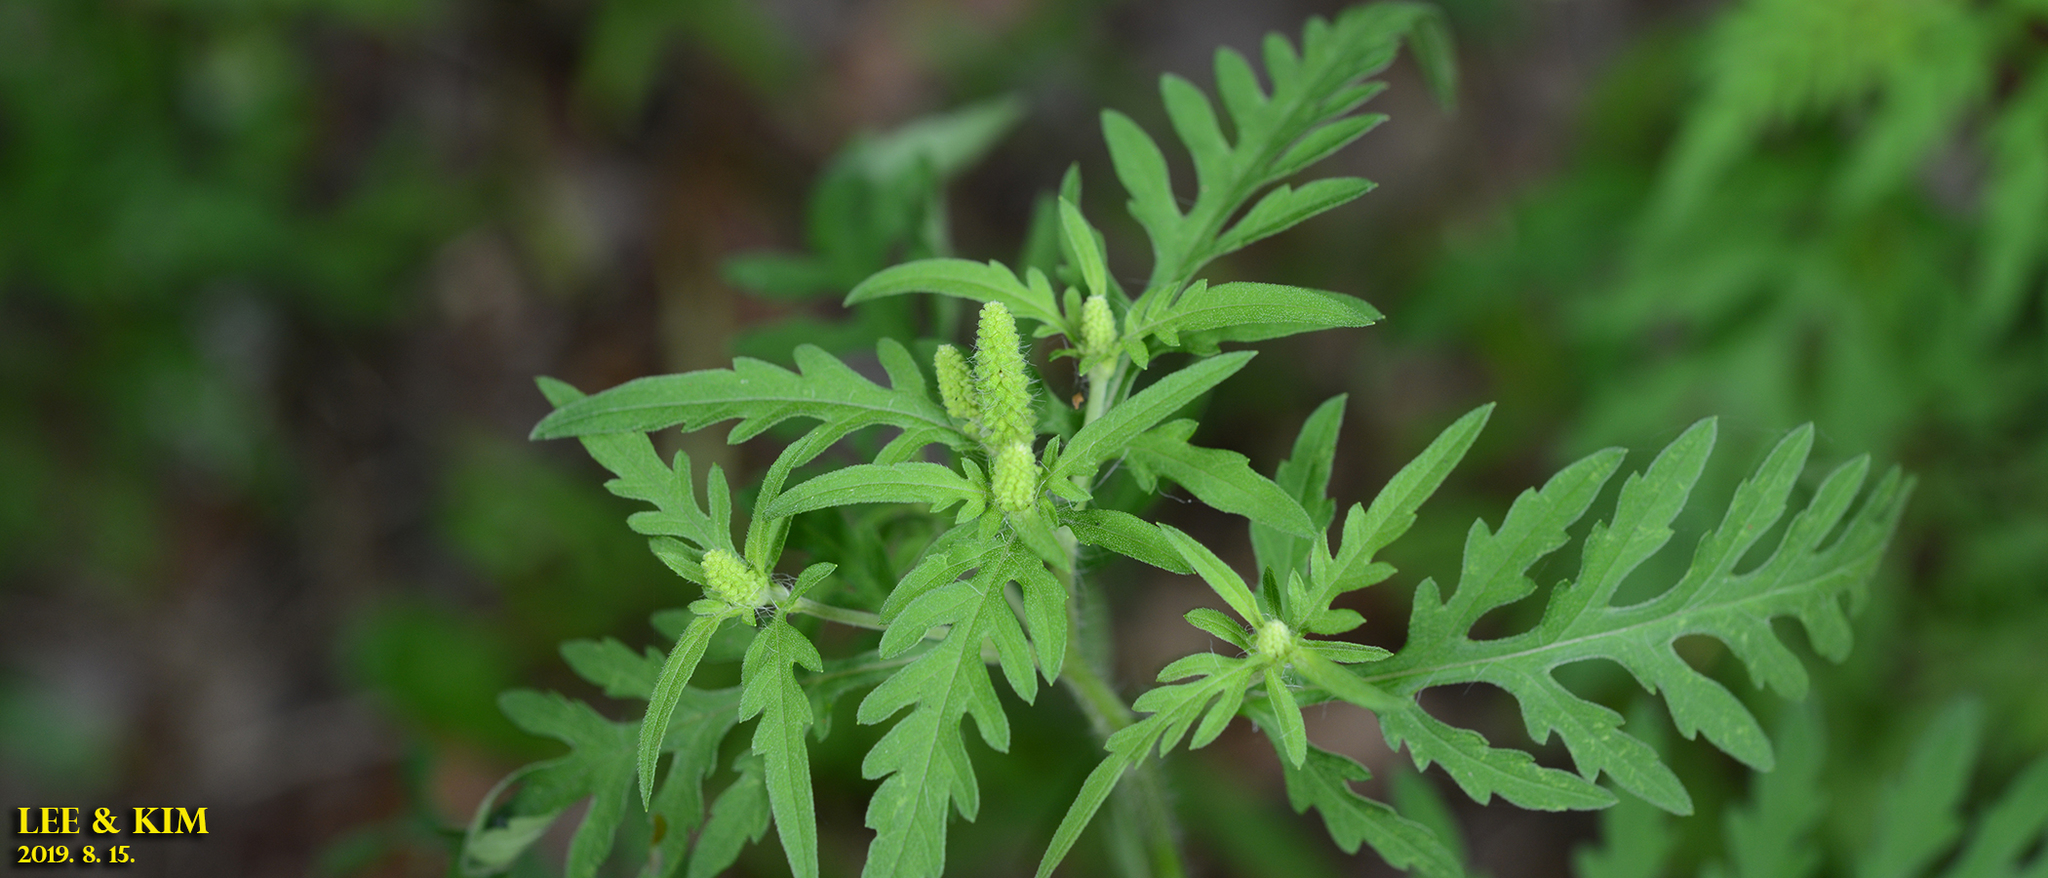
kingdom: Plantae
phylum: Tracheophyta
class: Magnoliopsida
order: Asterales
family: Asteraceae
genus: Ambrosia
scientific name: Ambrosia artemisiifolia
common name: Annual ragweed
